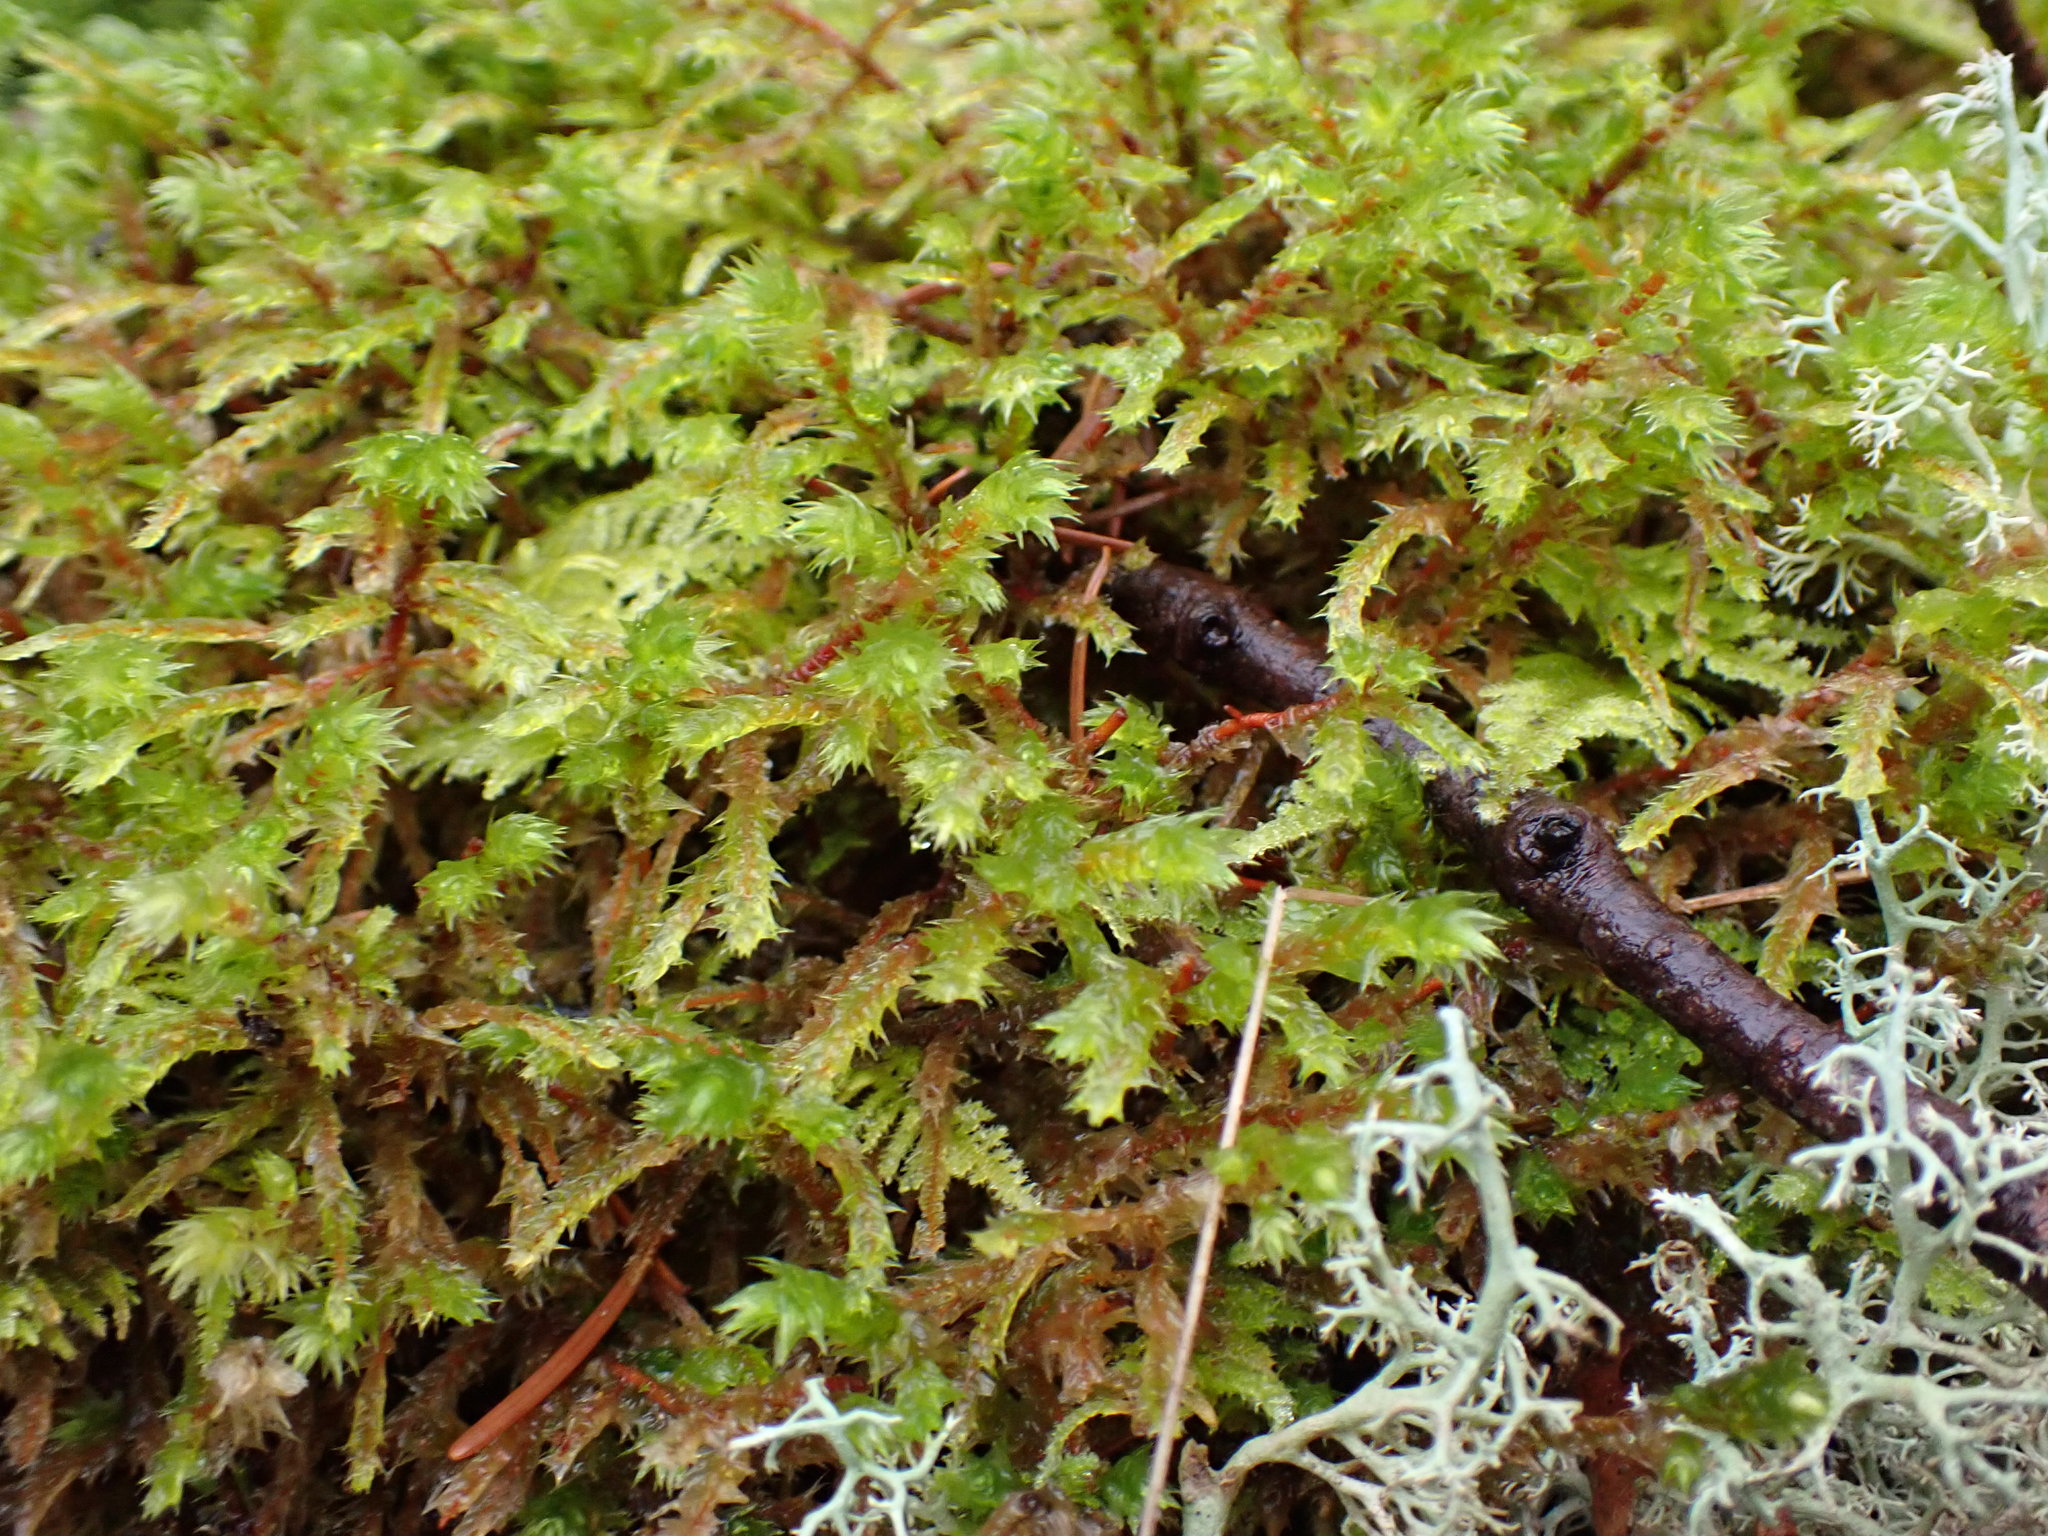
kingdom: Plantae
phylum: Bryophyta
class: Bryopsida
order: Hypnales
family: Hylocomiaceae
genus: Hylocomiadelphus
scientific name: Hylocomiadelphus triquetrus
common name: Rough goose neck moss
